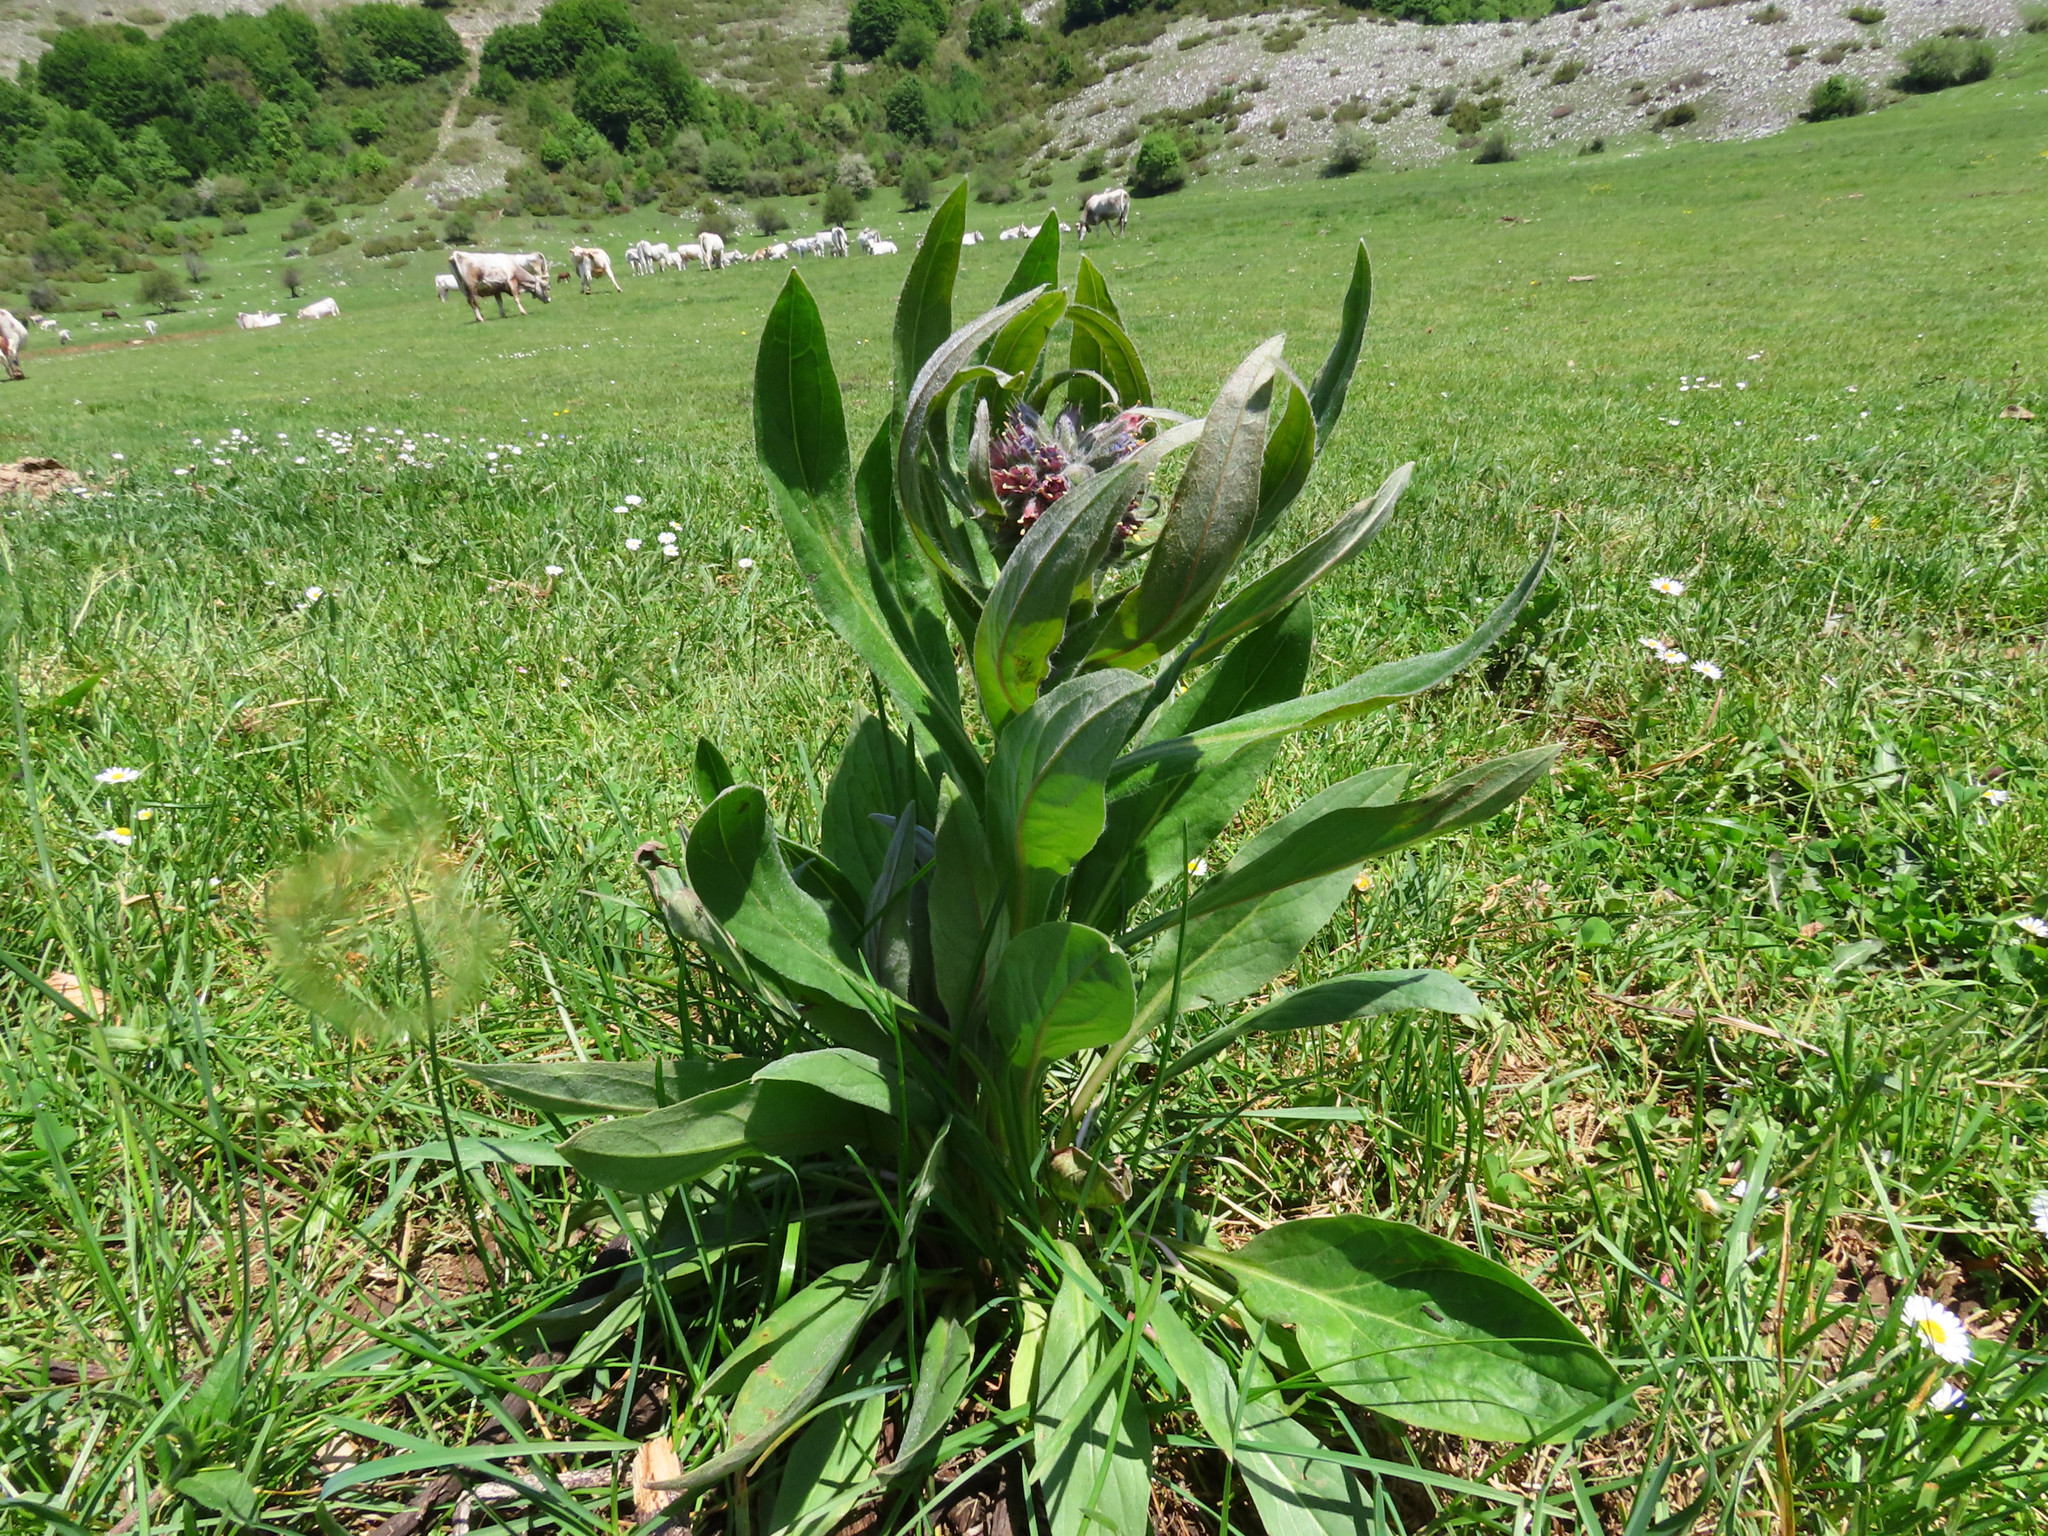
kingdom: Plantae
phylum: Tracheophyta
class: Magnoliopsida
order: Boraginales
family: Boraginaceae
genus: Solenanthus
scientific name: Solenanthus apenninus
